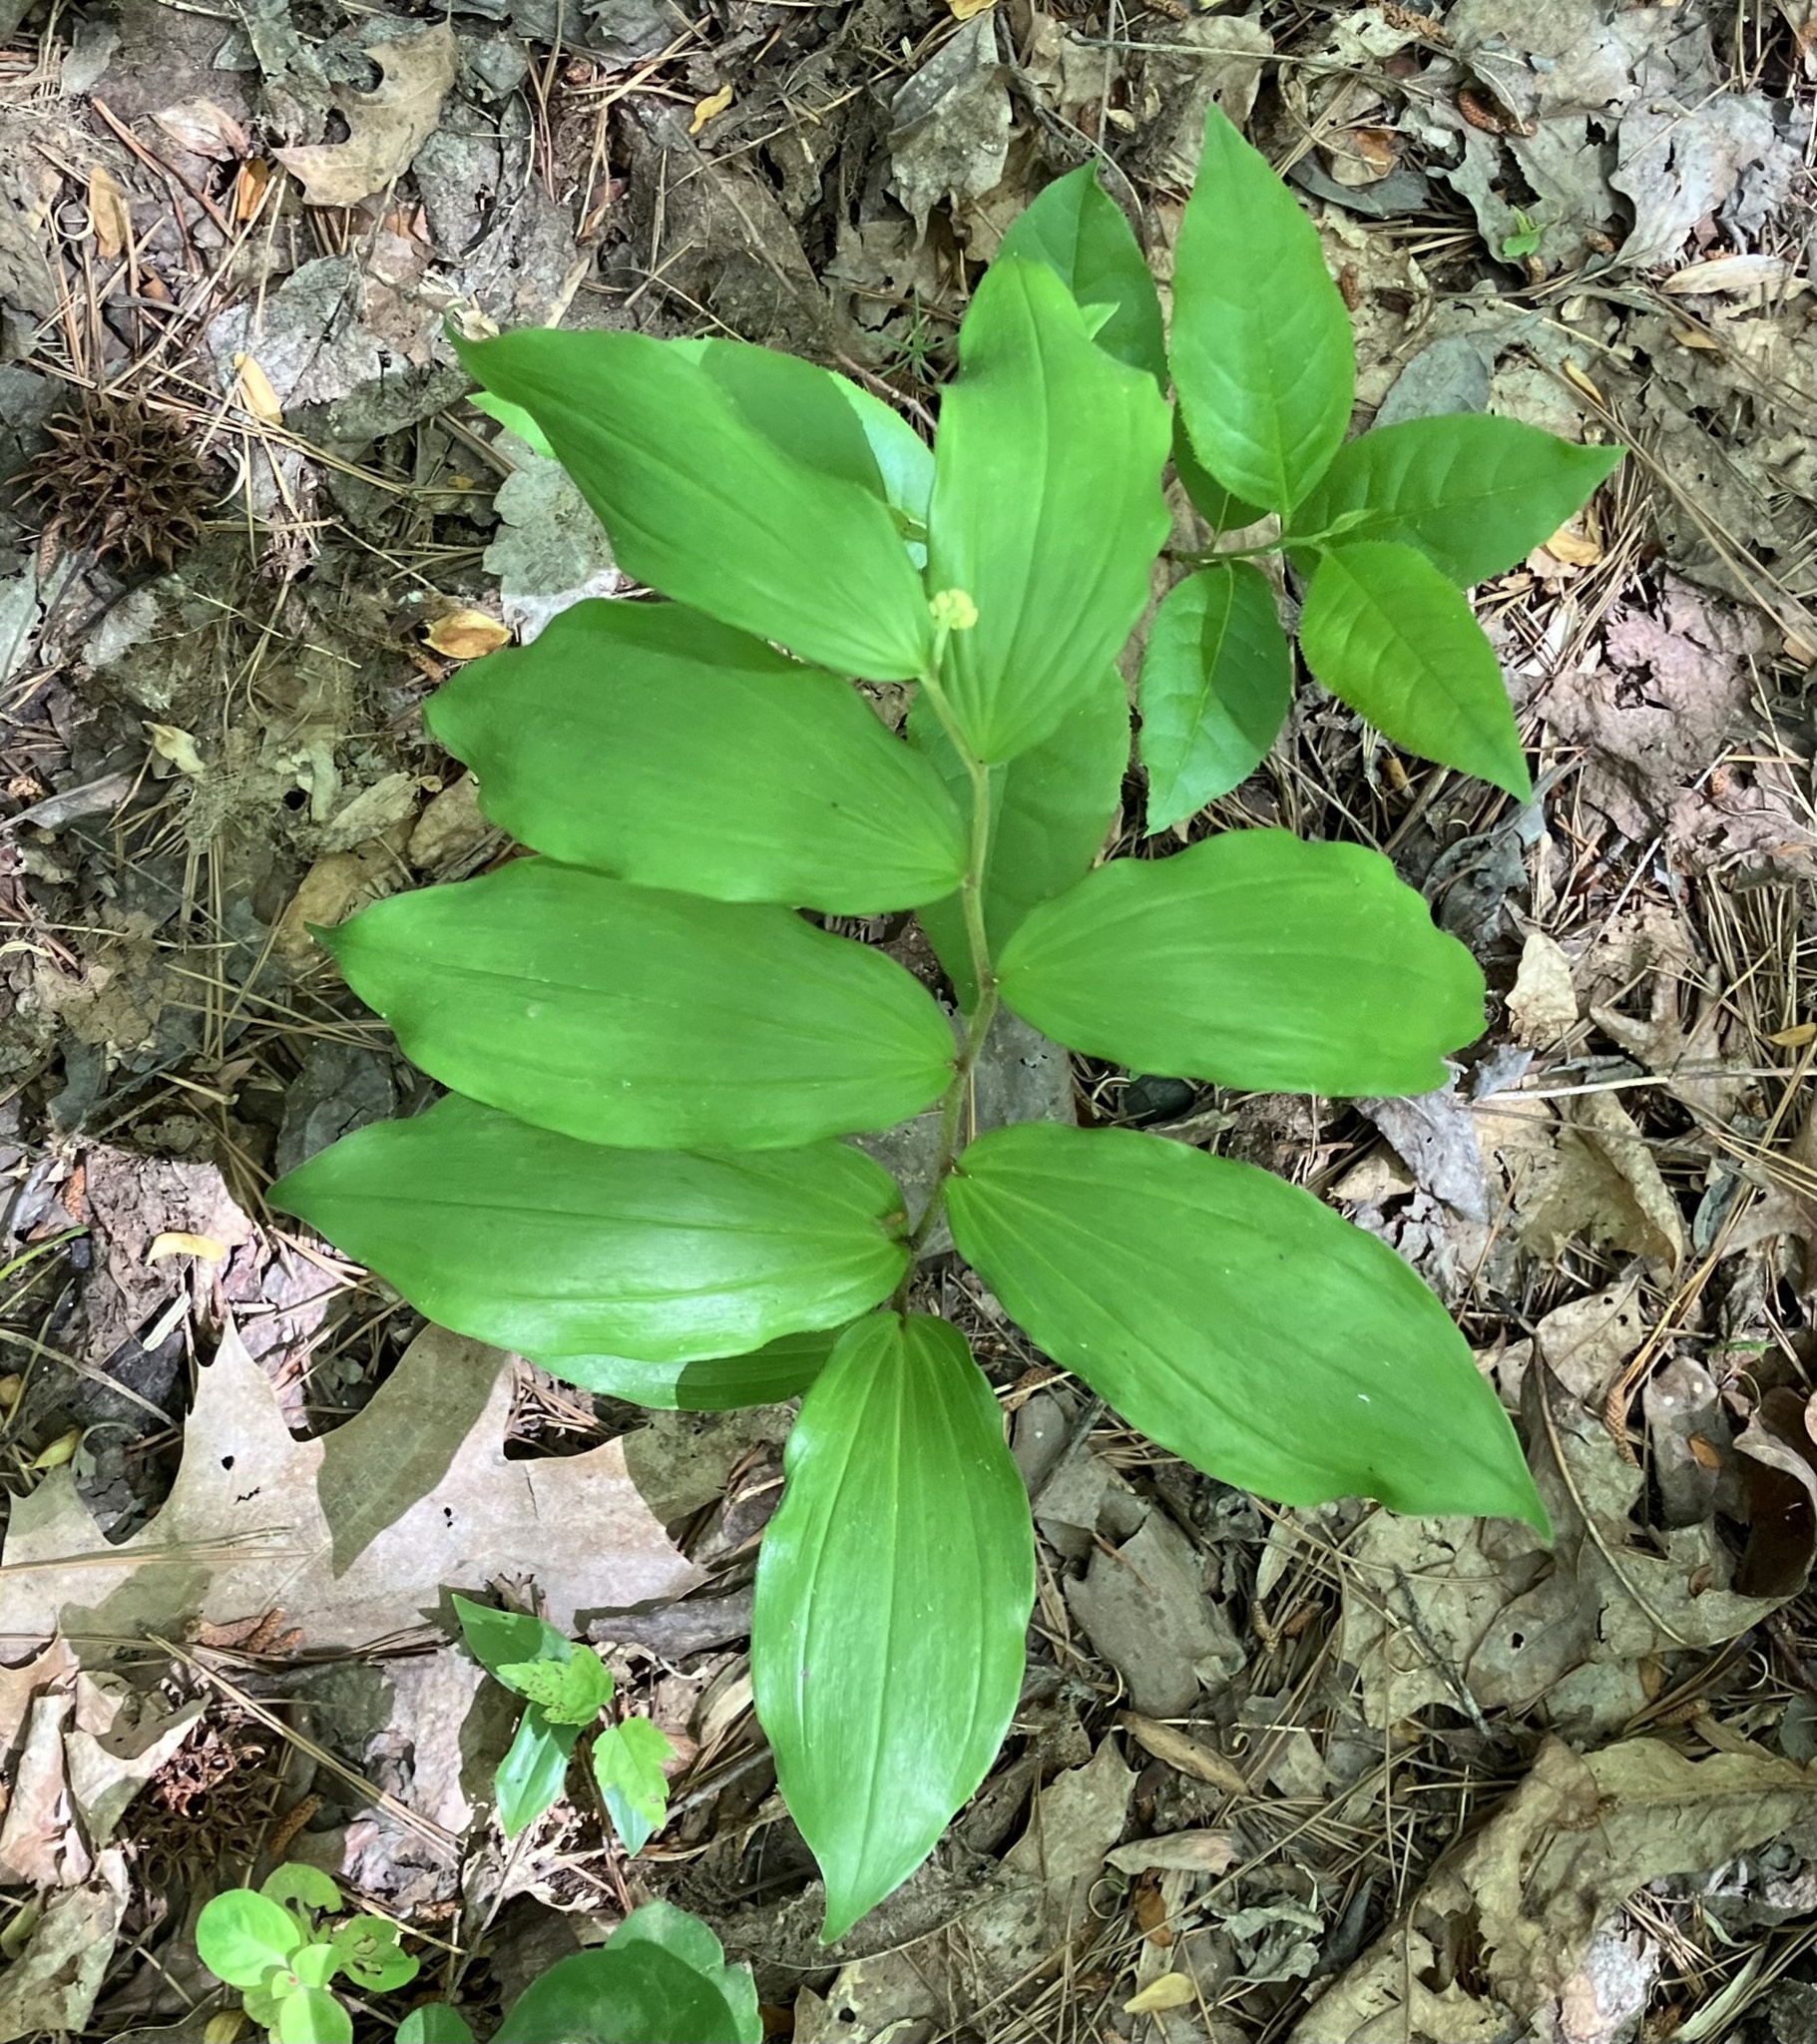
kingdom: Plantae
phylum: Tracheophyta
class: Liliopsida
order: Asparagales
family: Asparagaceae
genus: Maianthemum
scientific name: Maianthemum racemosum
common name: False spikenard
